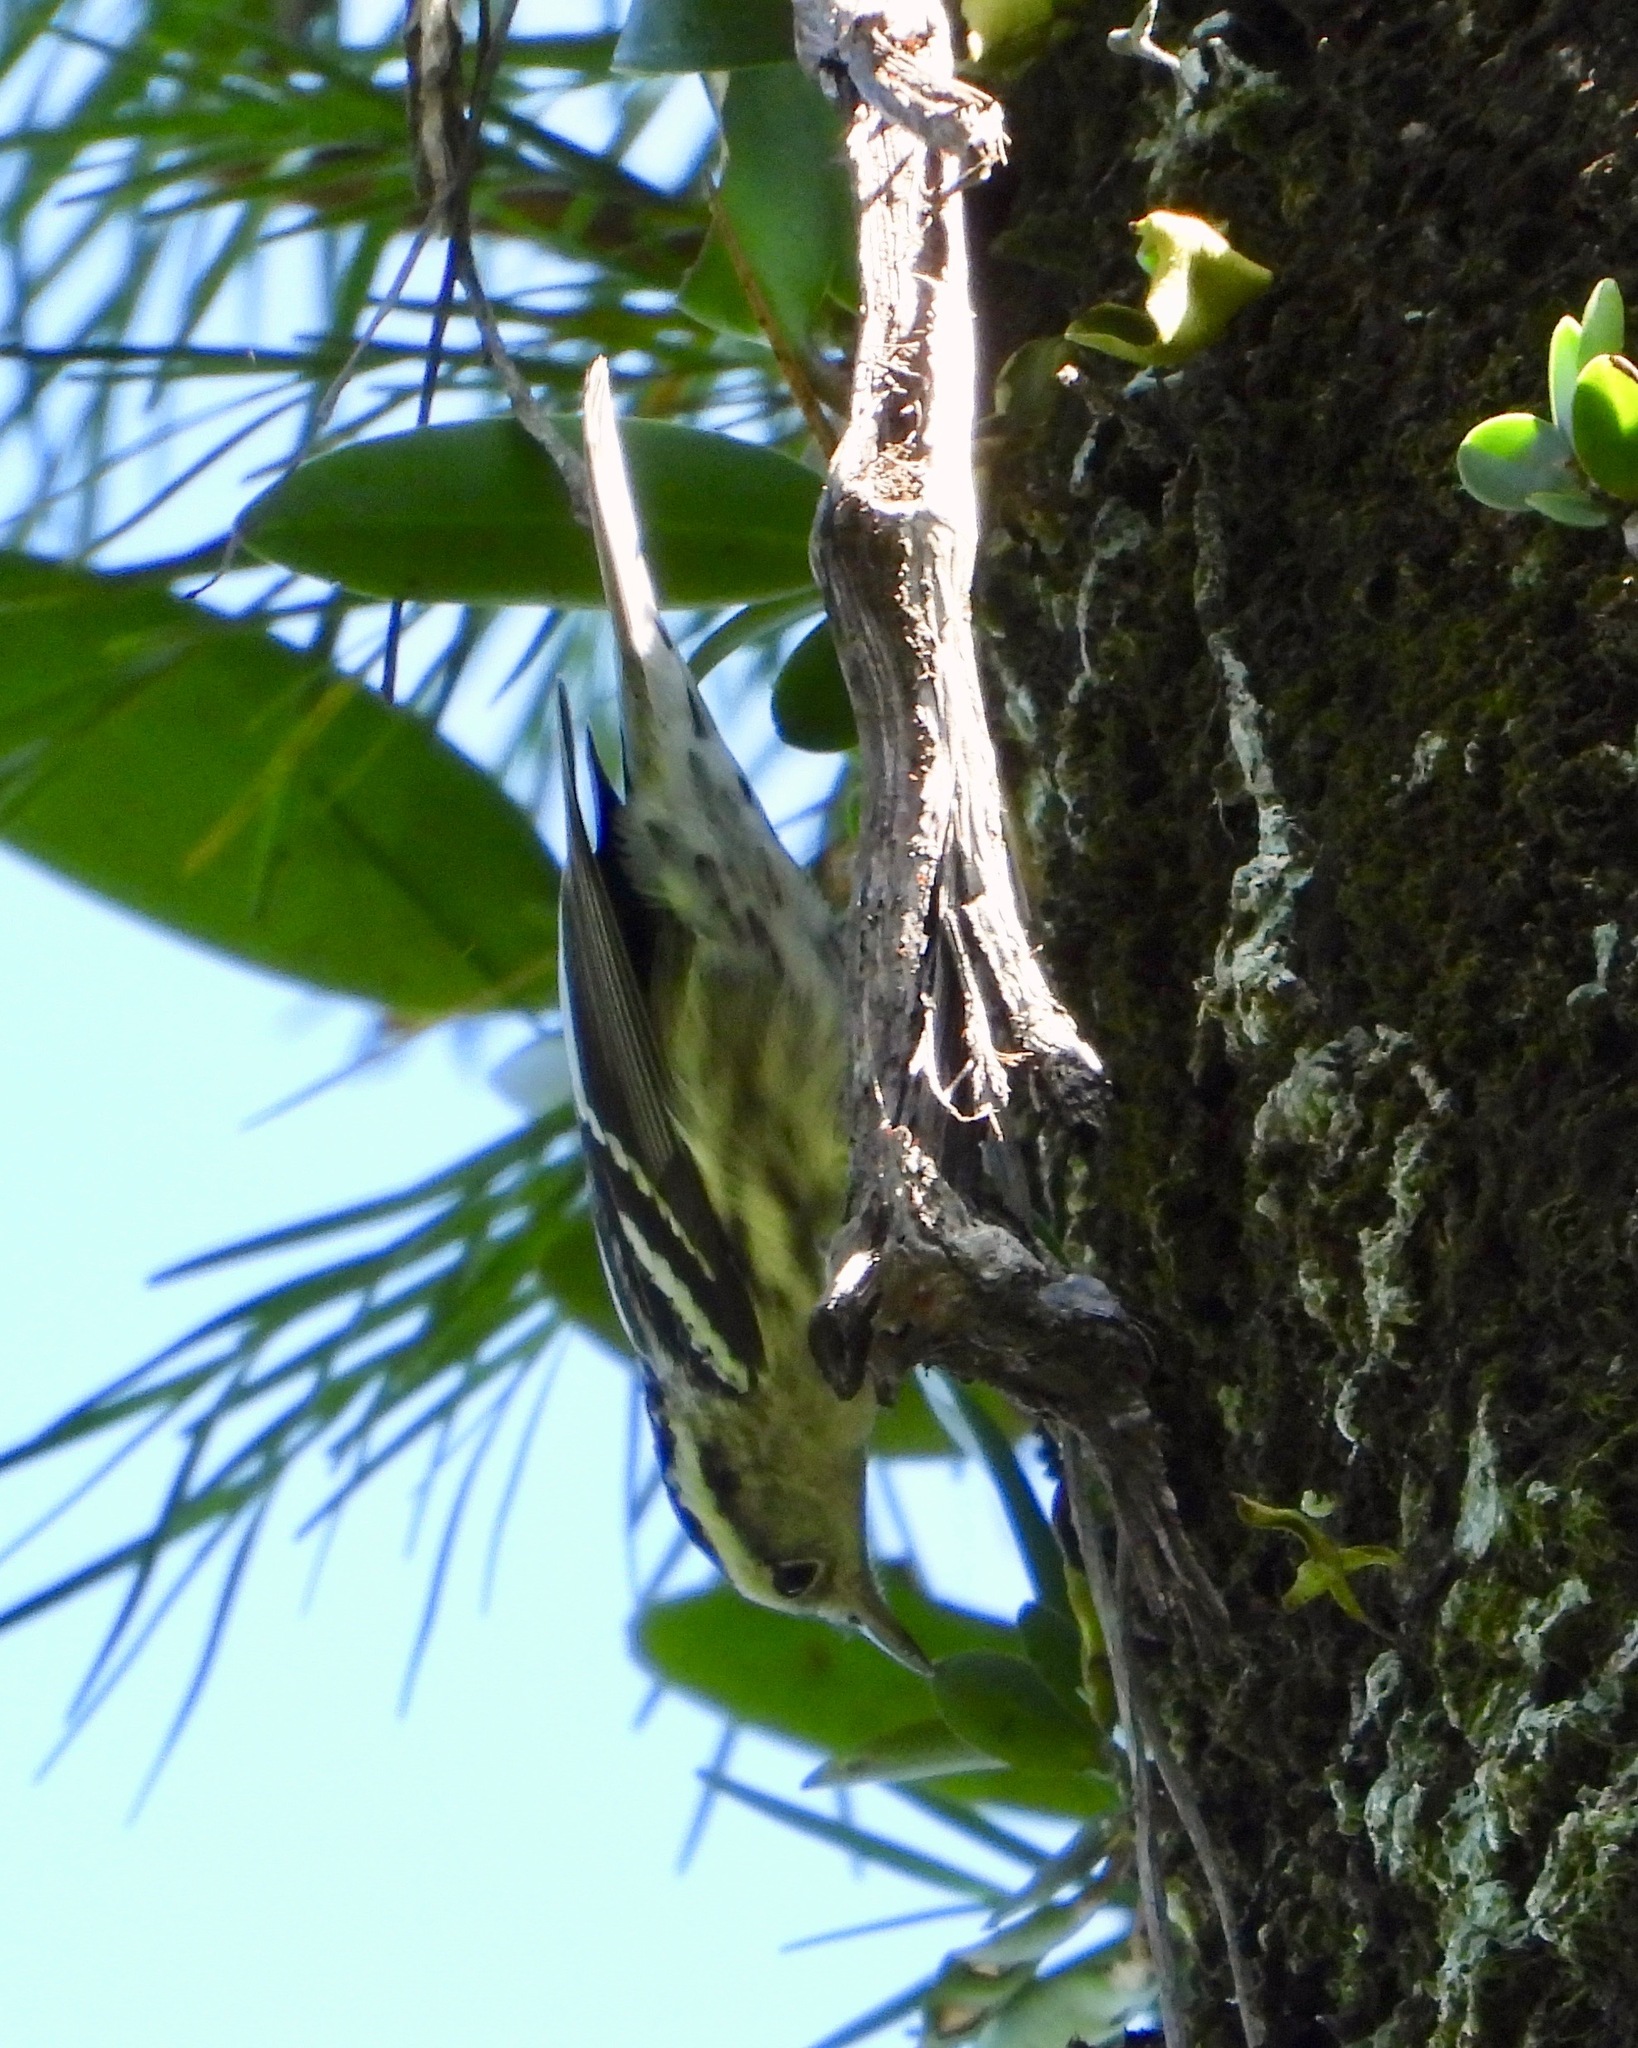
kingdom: Animalia
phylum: Chordata
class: Aves
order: Passeriformes
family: Parulidae
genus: Mniotilta
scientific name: Mniotilta varia
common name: Black-and-white warbler
